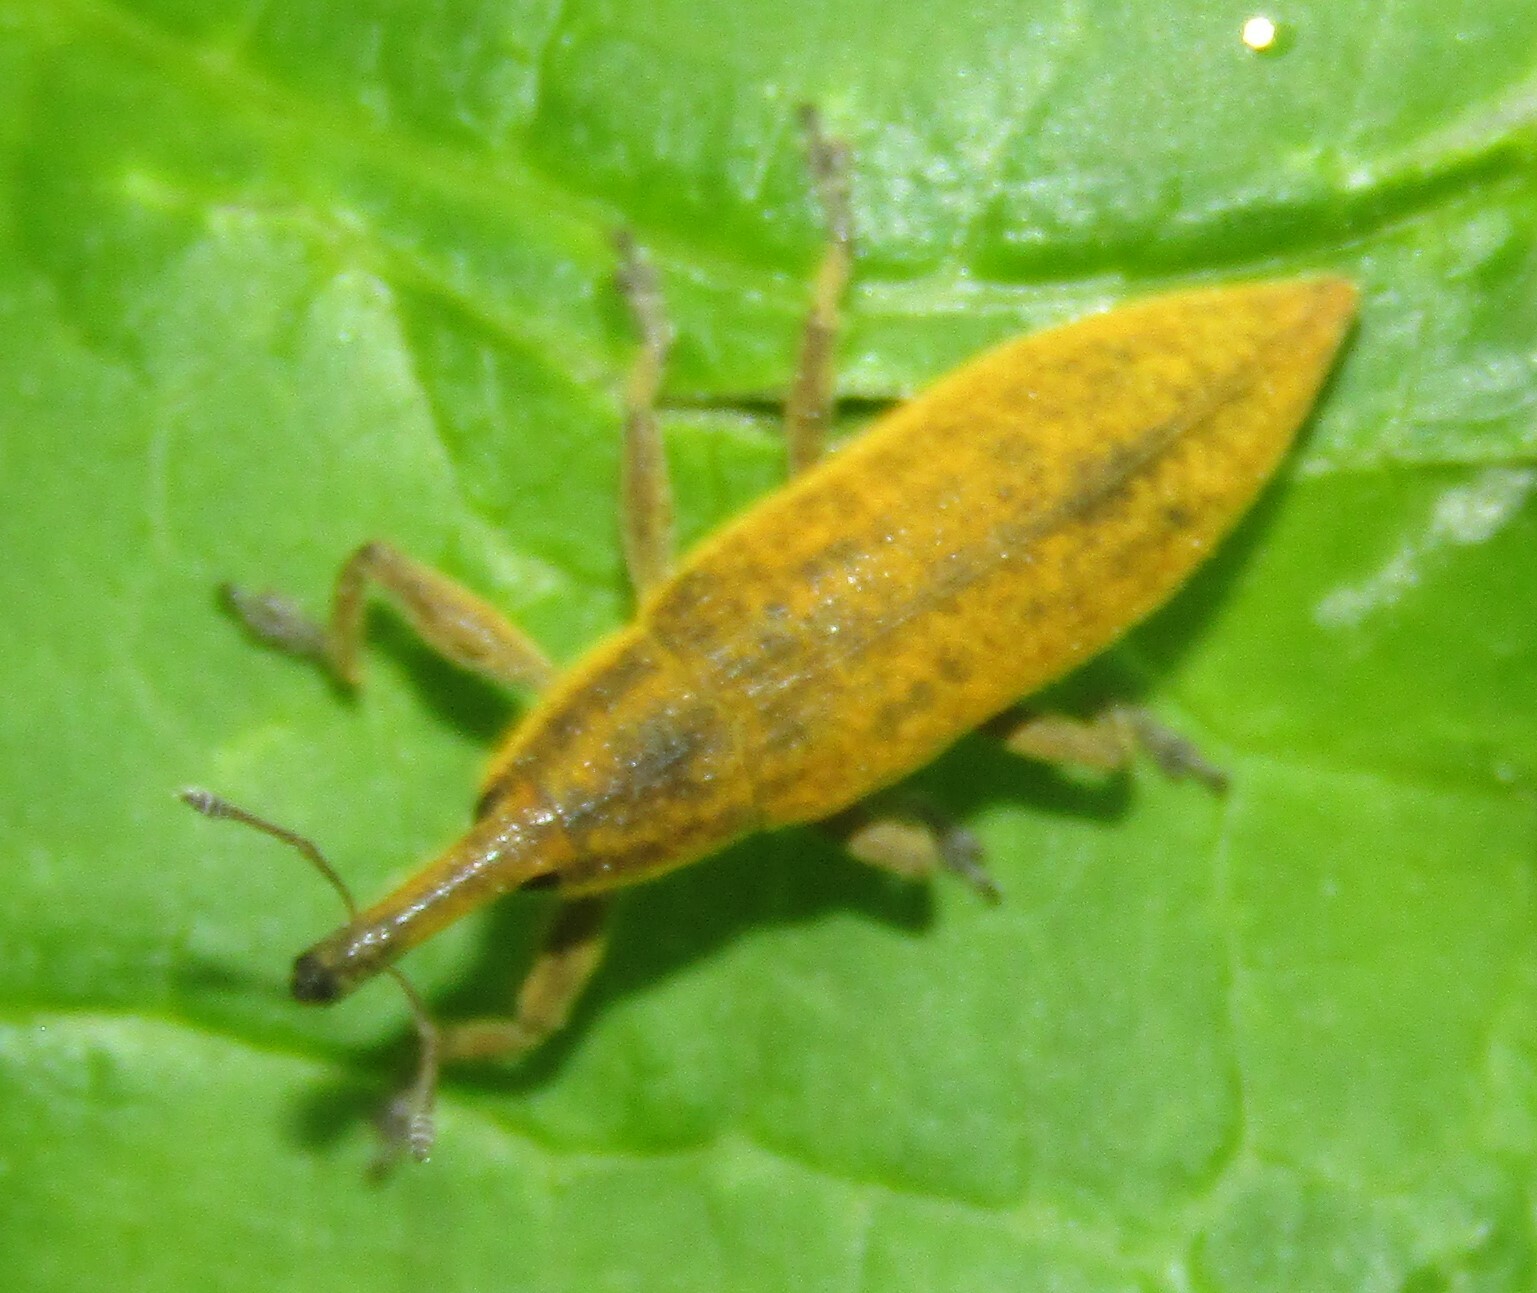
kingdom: Animalia
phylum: Arthropoda
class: Insecta
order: Coleoptera
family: Curculionidae
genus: Lixus
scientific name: Lixus iridis
